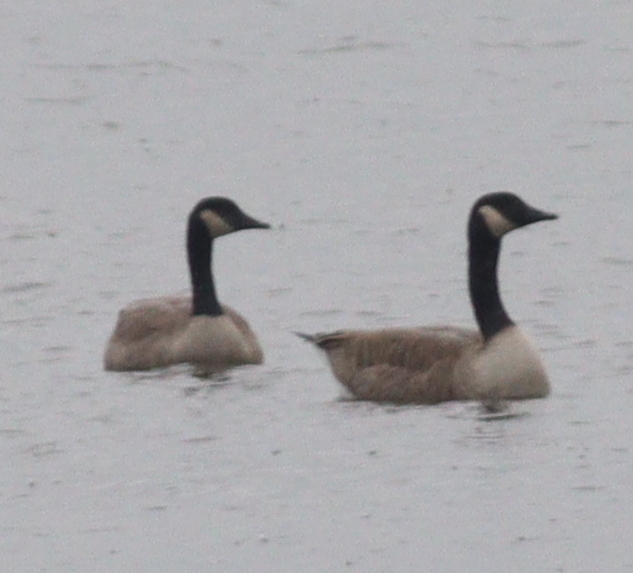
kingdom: Animalia
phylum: Chordata
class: Aves
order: Anseriformes
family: Anatidae
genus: Branta
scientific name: Branta canadensis
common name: Canada goose
